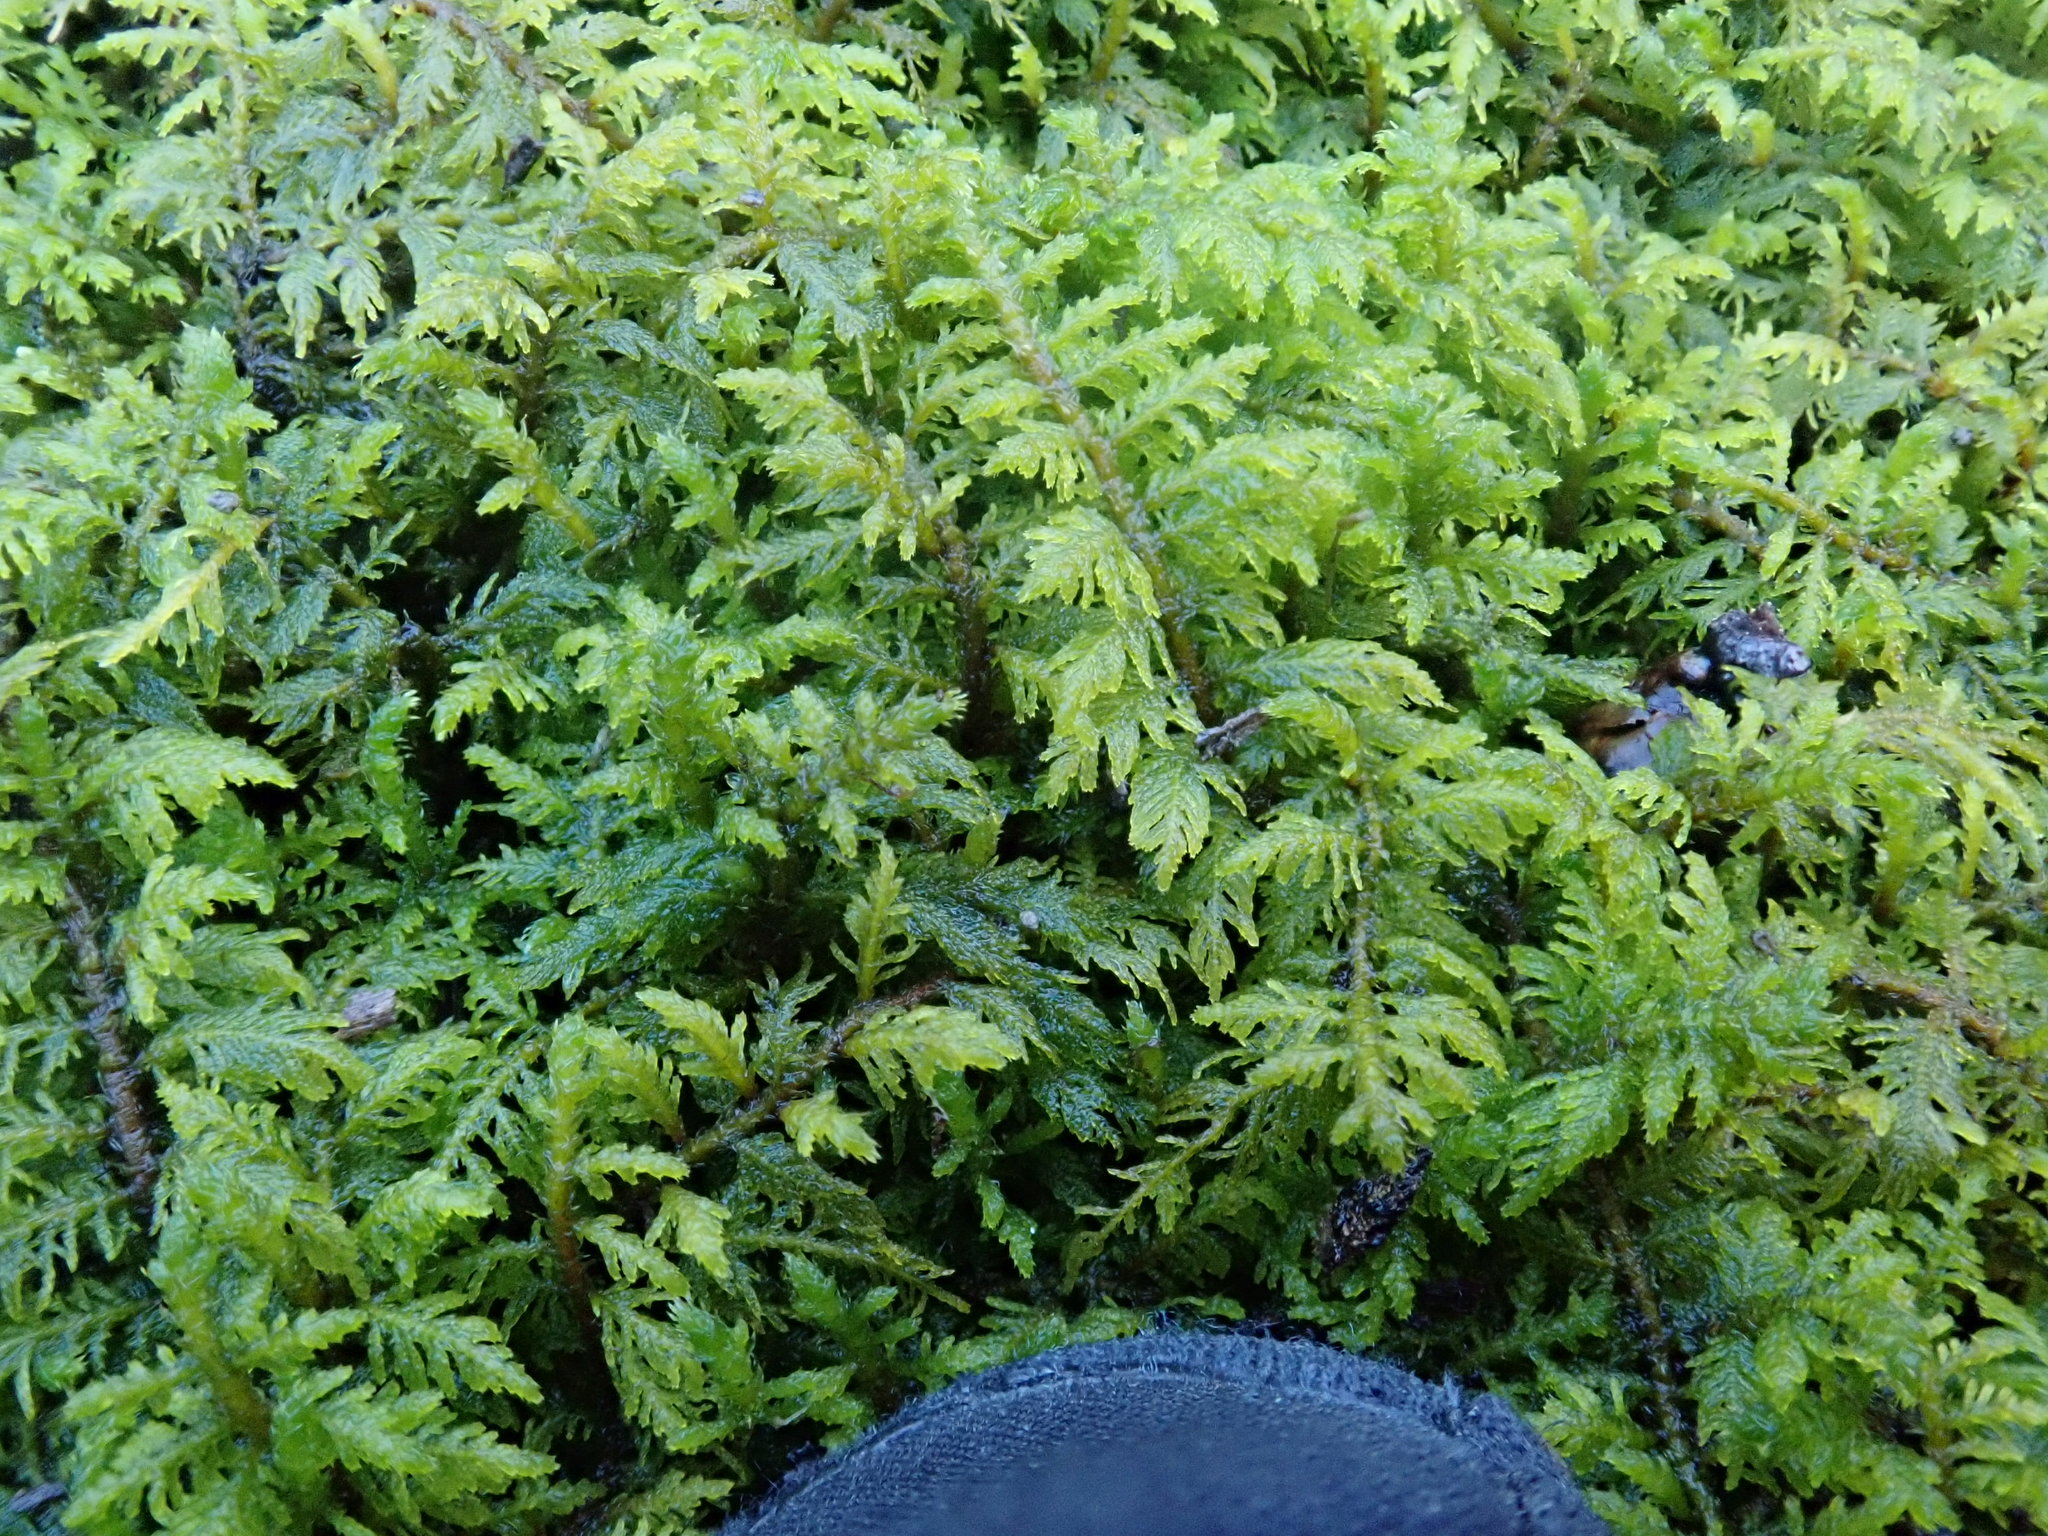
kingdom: Plantae
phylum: Bryophyta
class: Bryopsida
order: Hypnales
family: Thuidiaceae
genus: Thuidium
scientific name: Thuidium delicatulum
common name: Delicate fern moss
